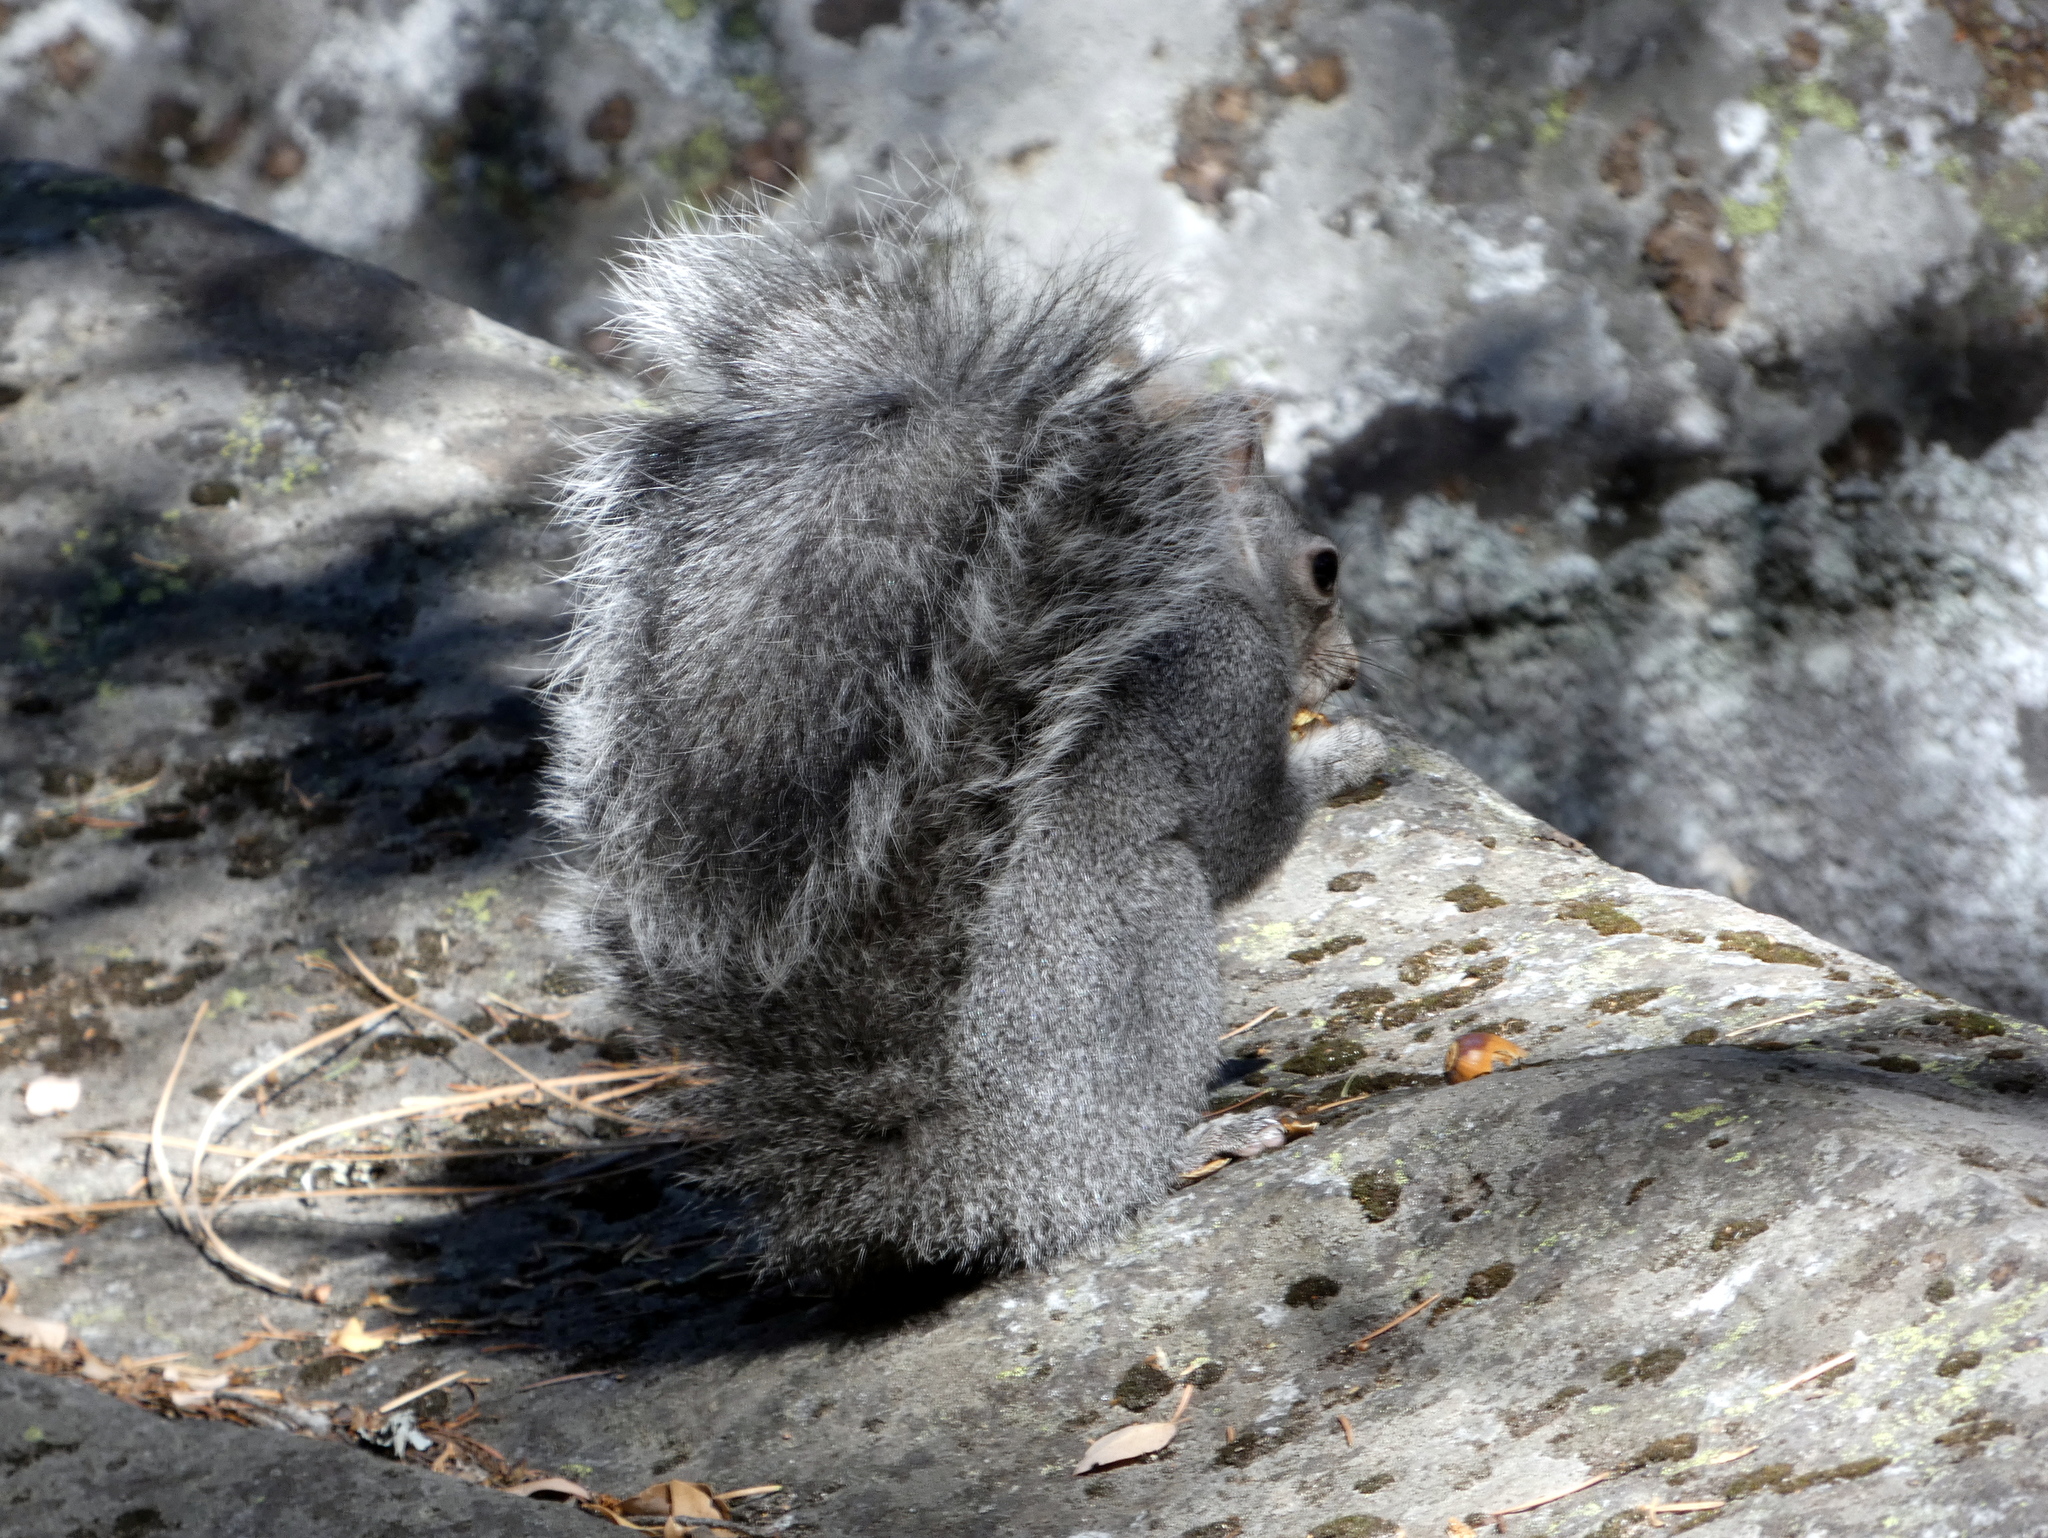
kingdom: Animalia
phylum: Chordata
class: Mammalia
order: Rodentia
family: Sciuridae
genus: Sciurus
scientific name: Sciurus griseus
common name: Western gray squirrel
